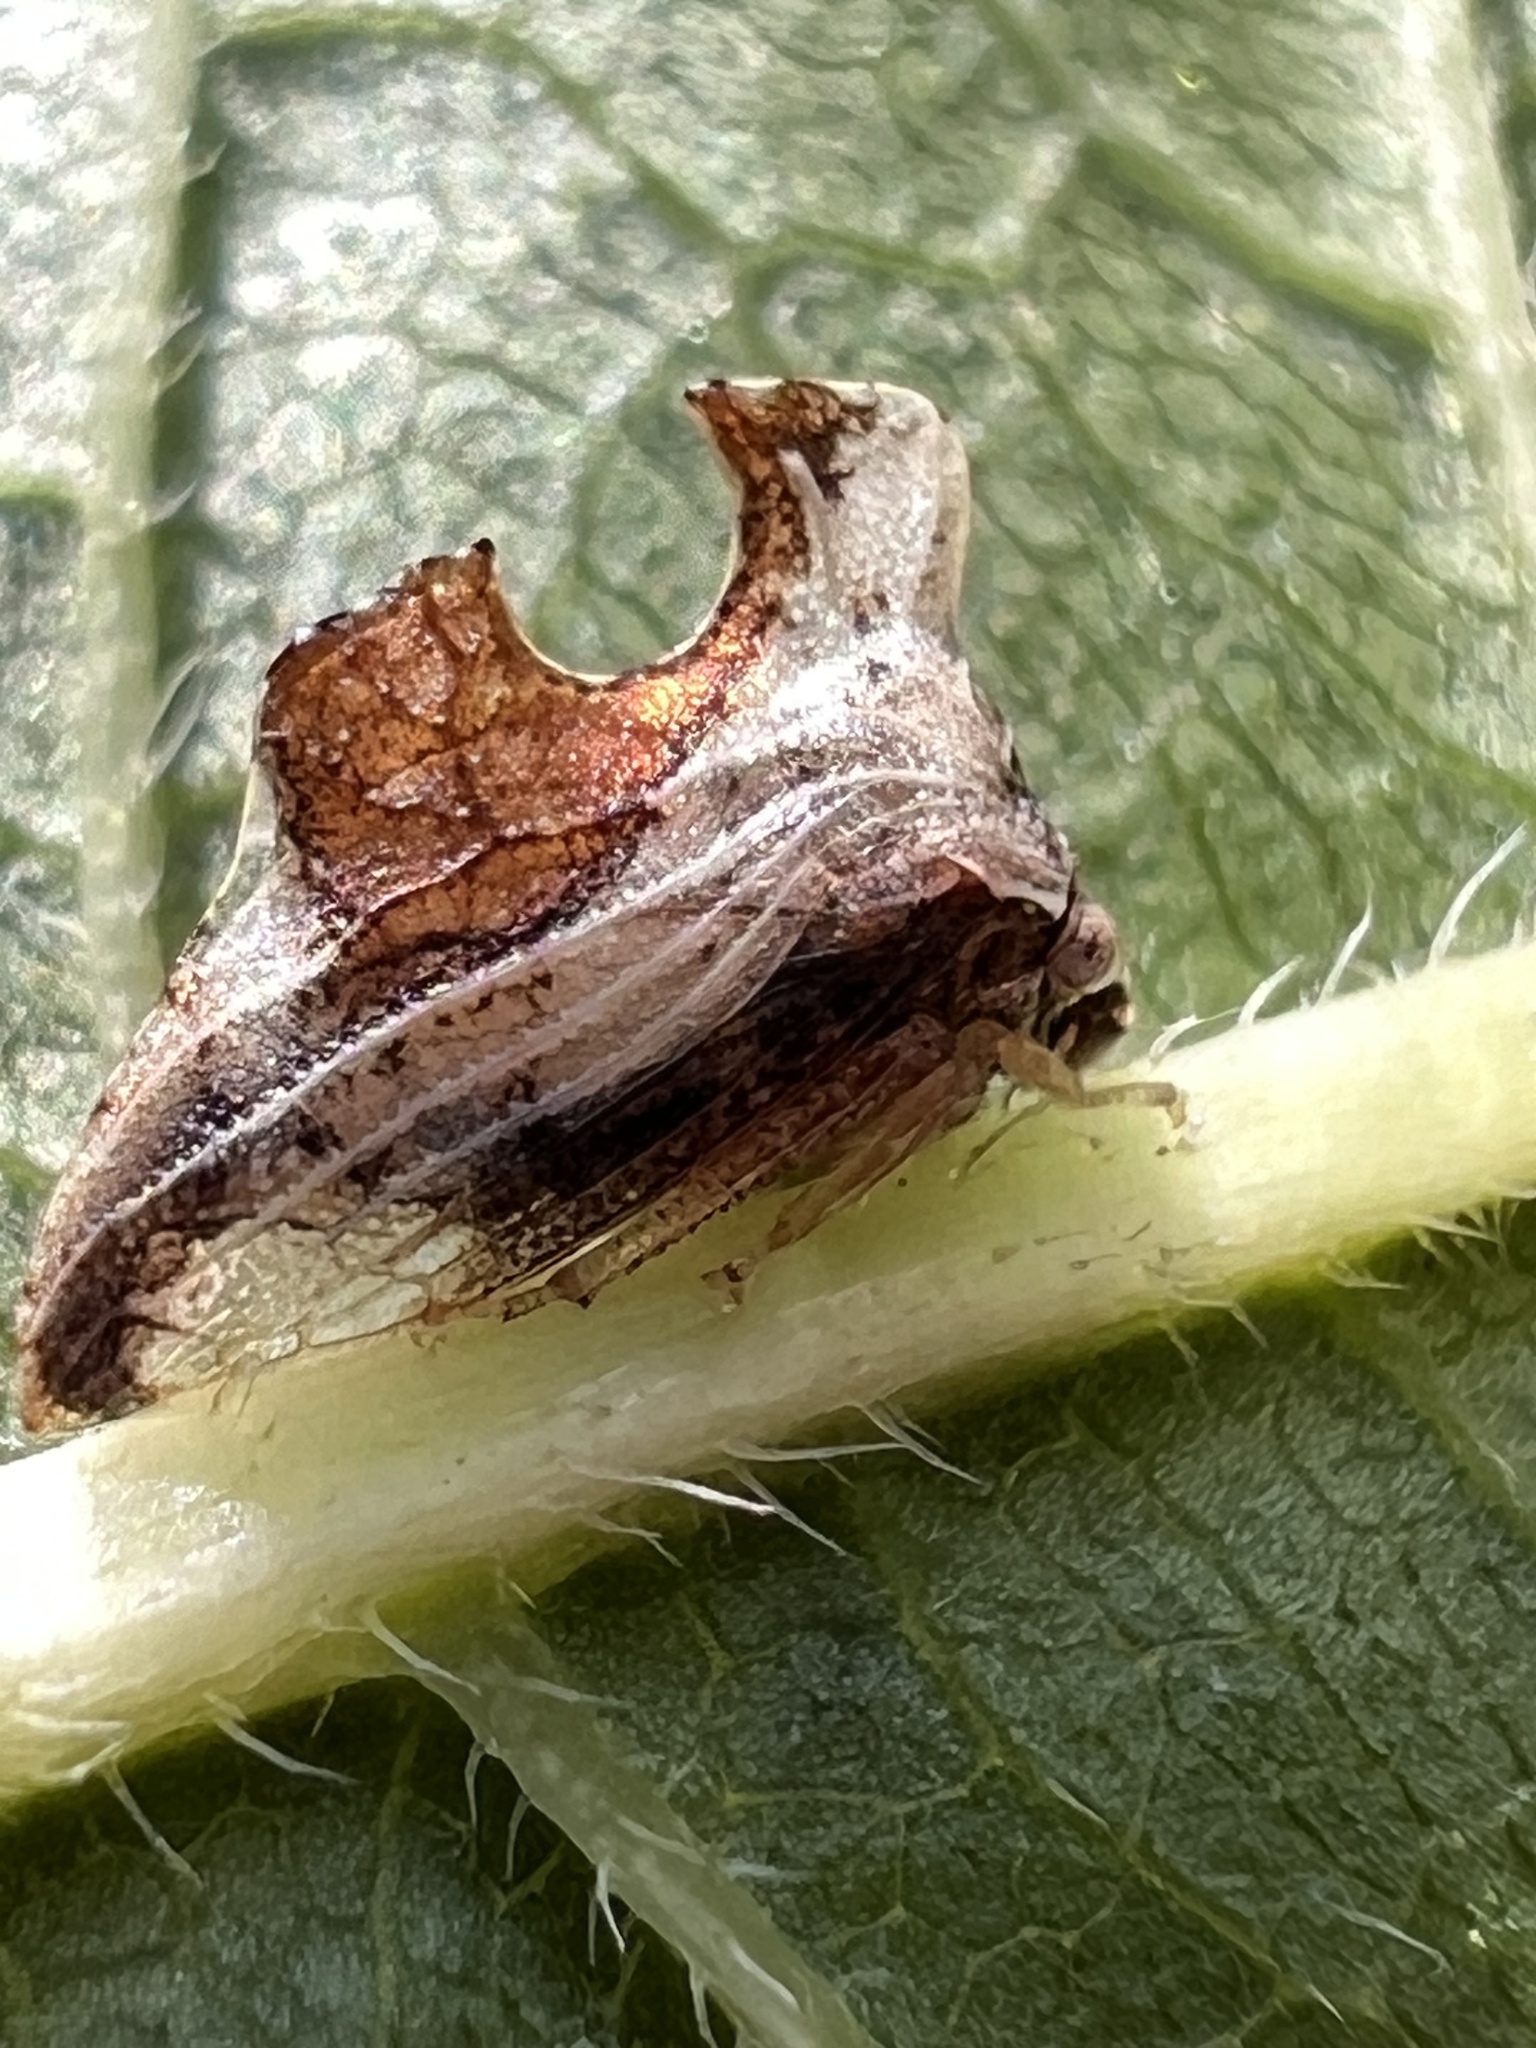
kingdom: Animalia
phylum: Arthropoda
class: Insecta
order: Hemiptera
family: Membracidae
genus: Entylia
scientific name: Entylia carinata
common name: Keeled treehopper
